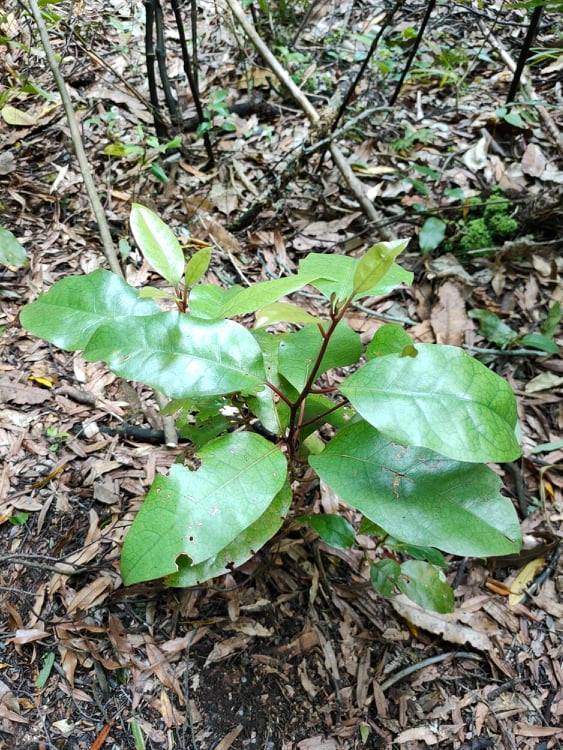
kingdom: Plantae
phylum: Tracheophyta
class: Magnoliopsida
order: Laurales
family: Lauraceae
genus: Litsea
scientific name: Litsea calicaris
